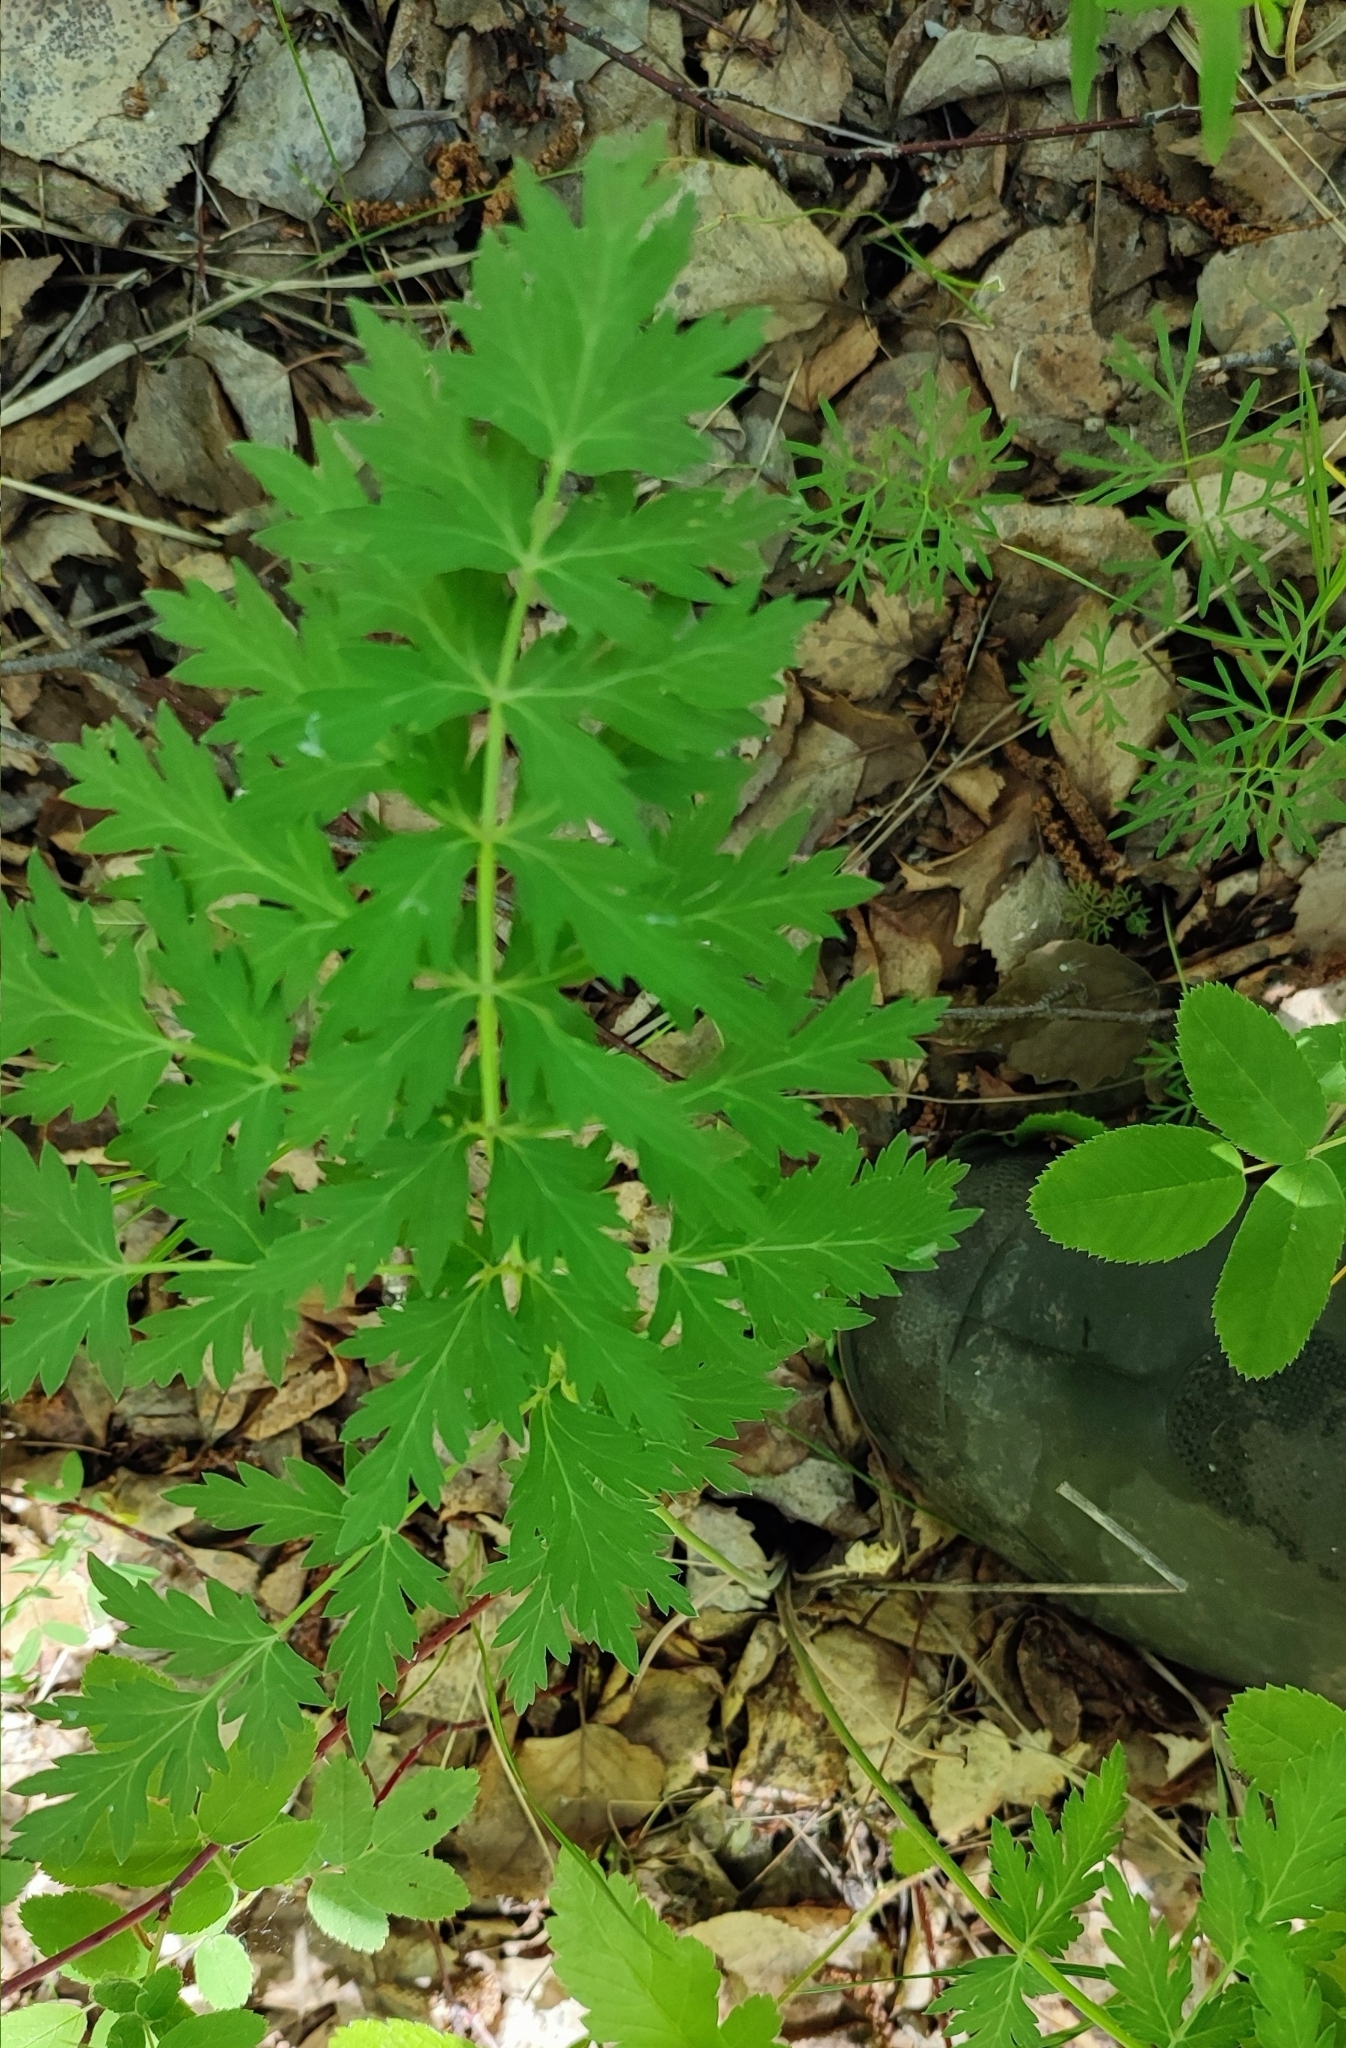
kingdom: Plantae
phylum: Tracheophyta
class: Magnoliopsida
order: Apiales
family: Apiaceae
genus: Seseli
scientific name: Seseli libanotis
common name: Mooncarrot
